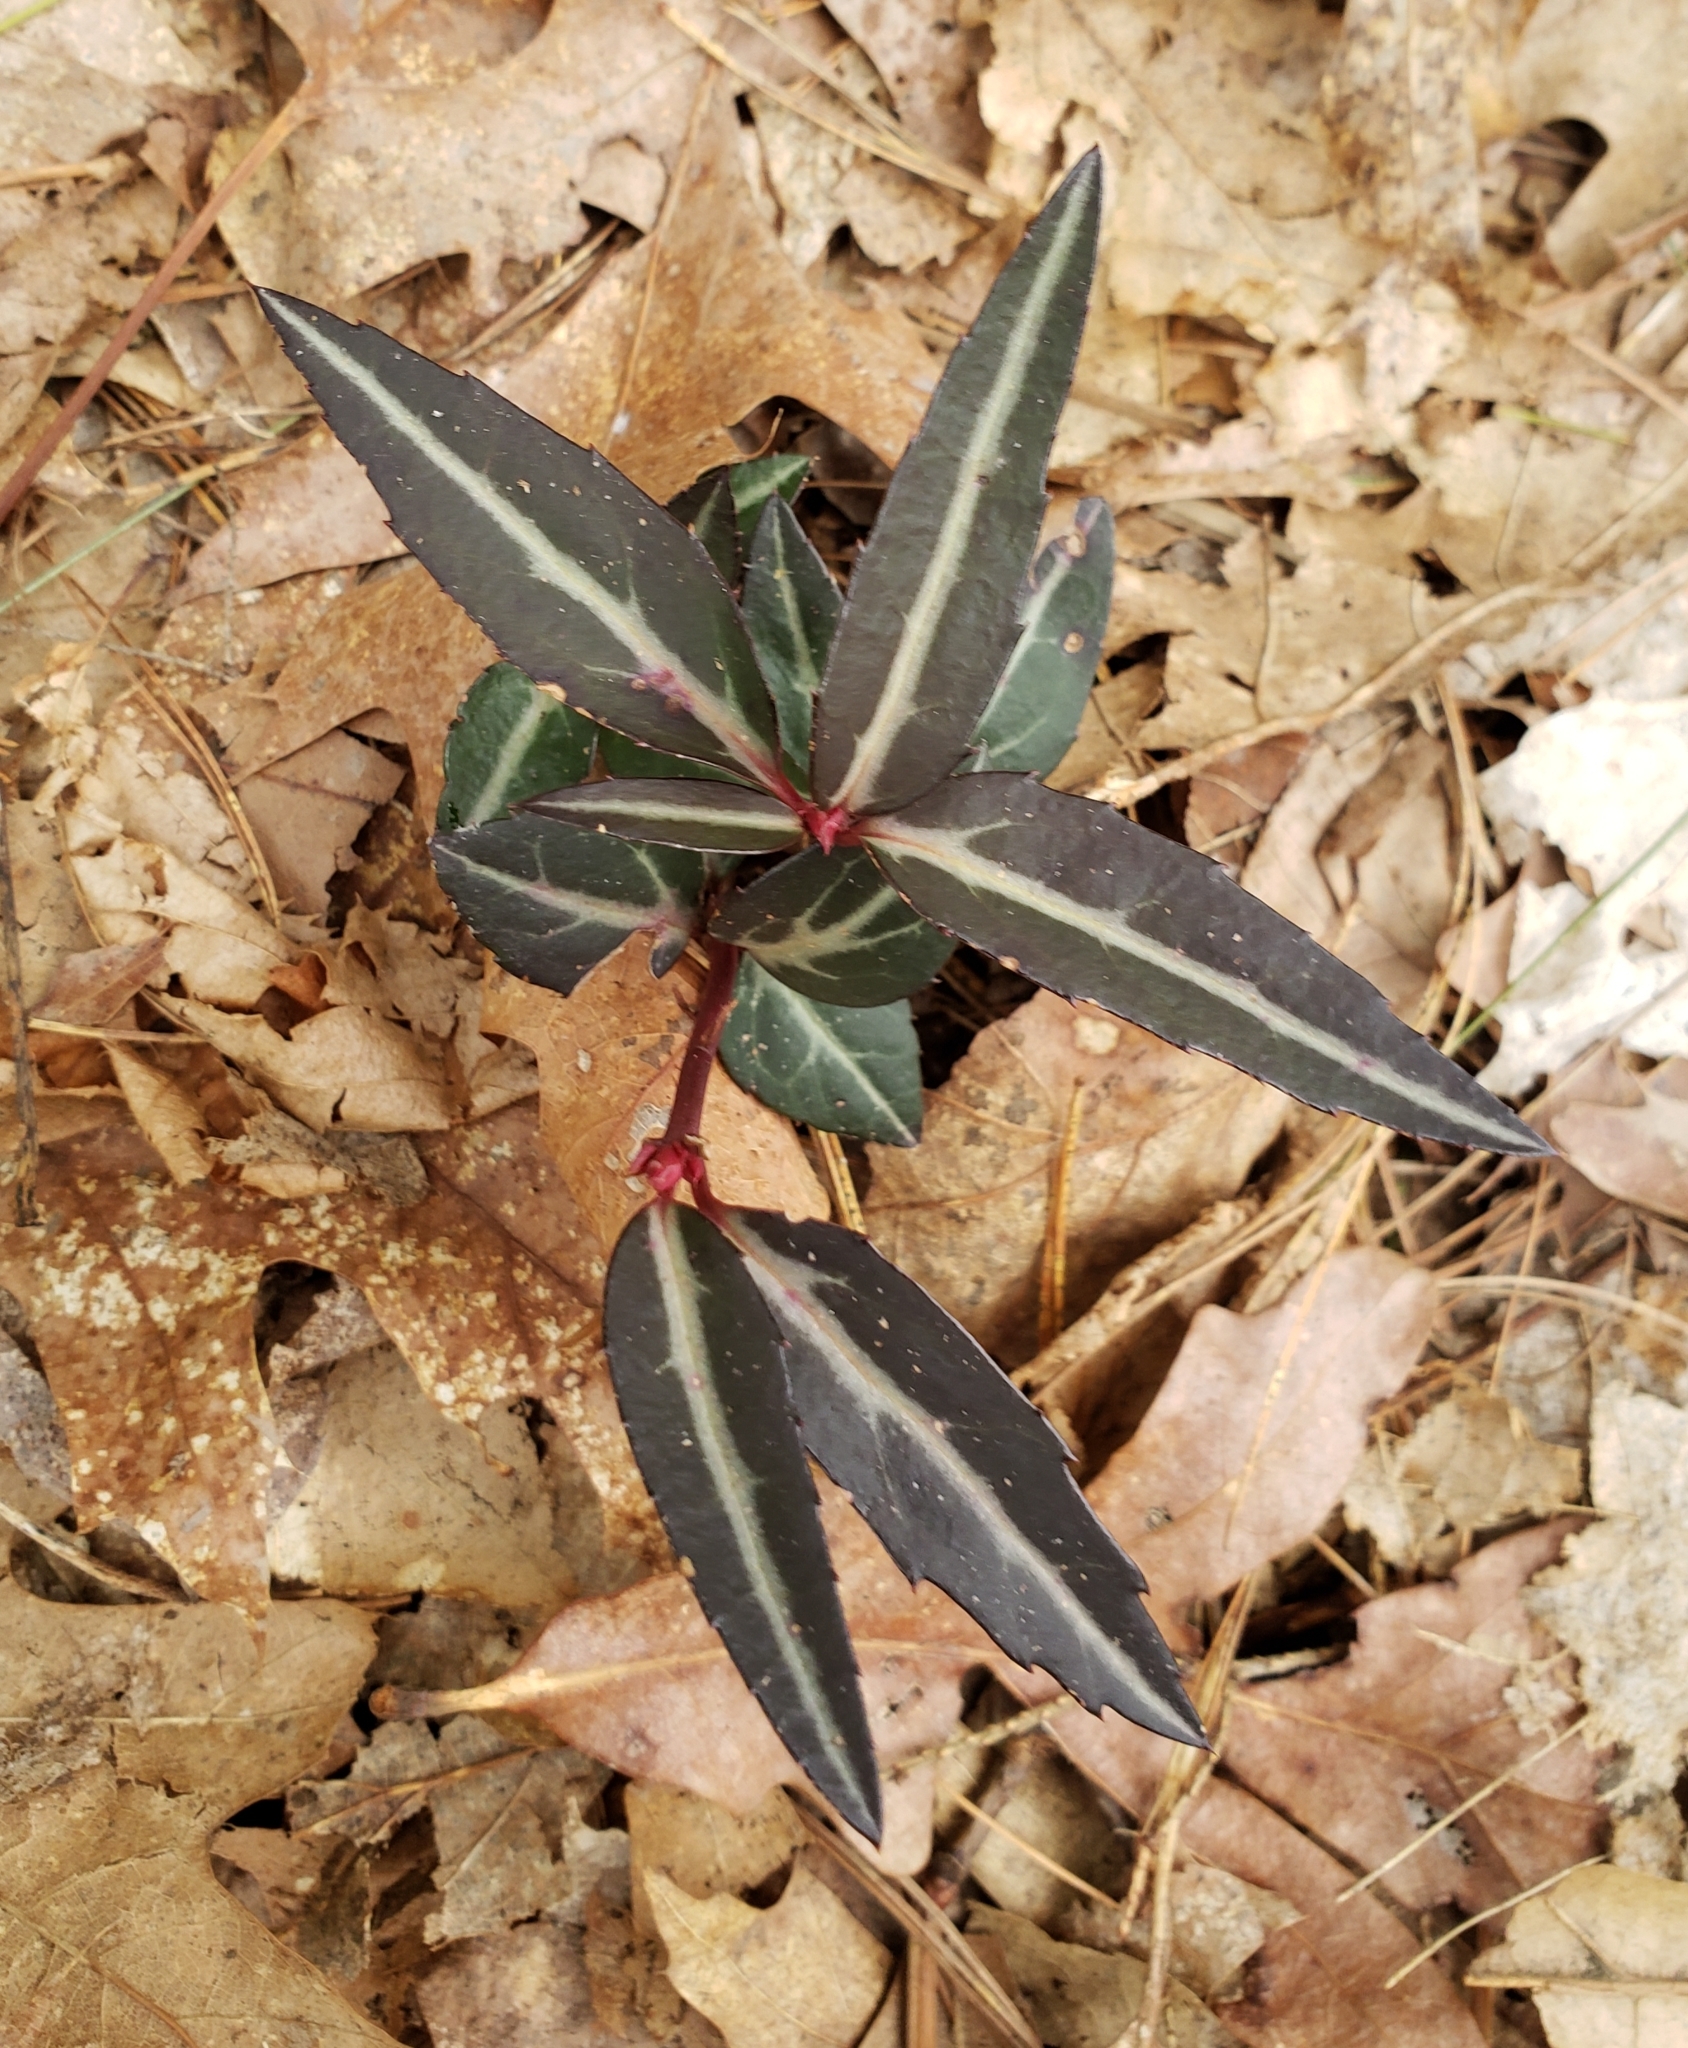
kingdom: Plantae
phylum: Tracheophyta
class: Magnoliopsida
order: Ericales
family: Ericaceae
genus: Chimaphila
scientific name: Chimaphila maculata
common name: Spotted pipsissewa
